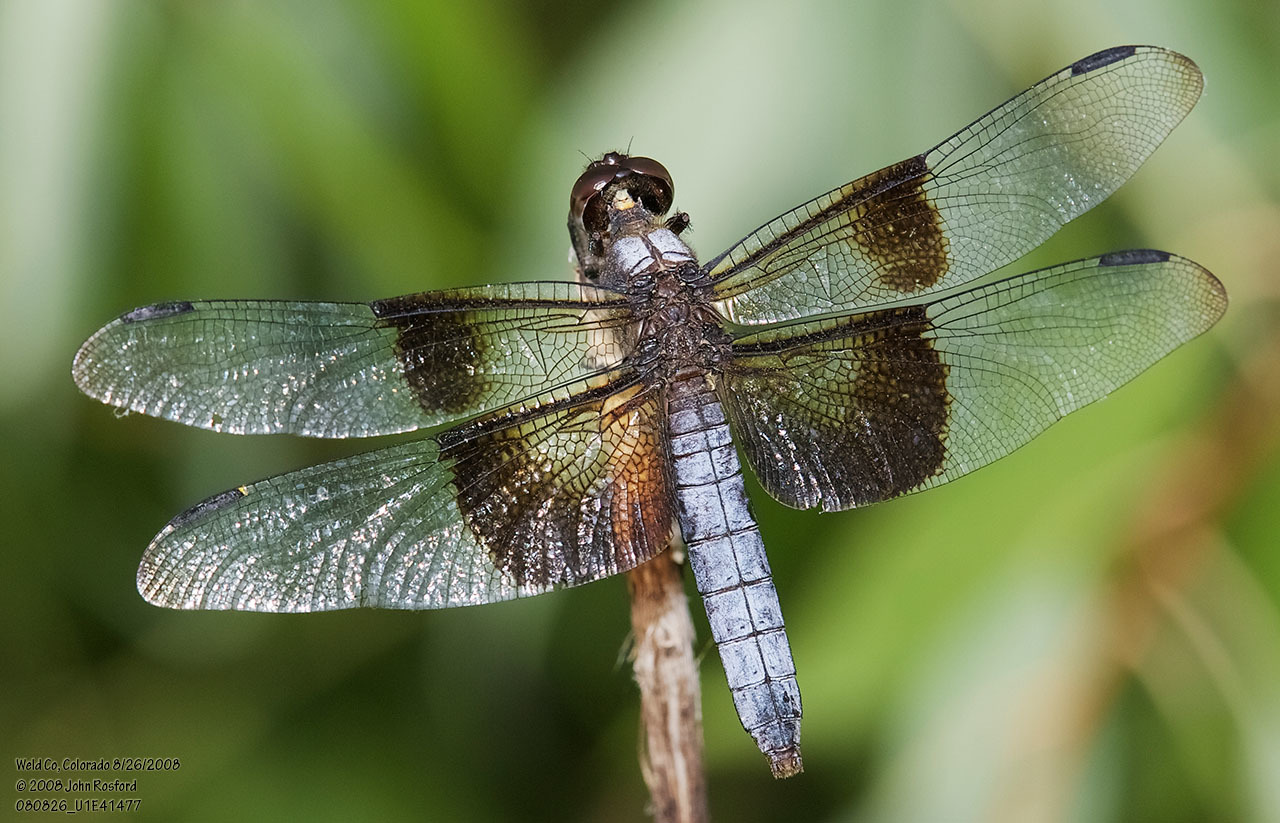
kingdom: Animalia
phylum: Arthropoda
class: Insecta
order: Odonata
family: Libellulidae
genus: Libellula
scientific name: Libellula luctuosa
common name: Widow skimmer
